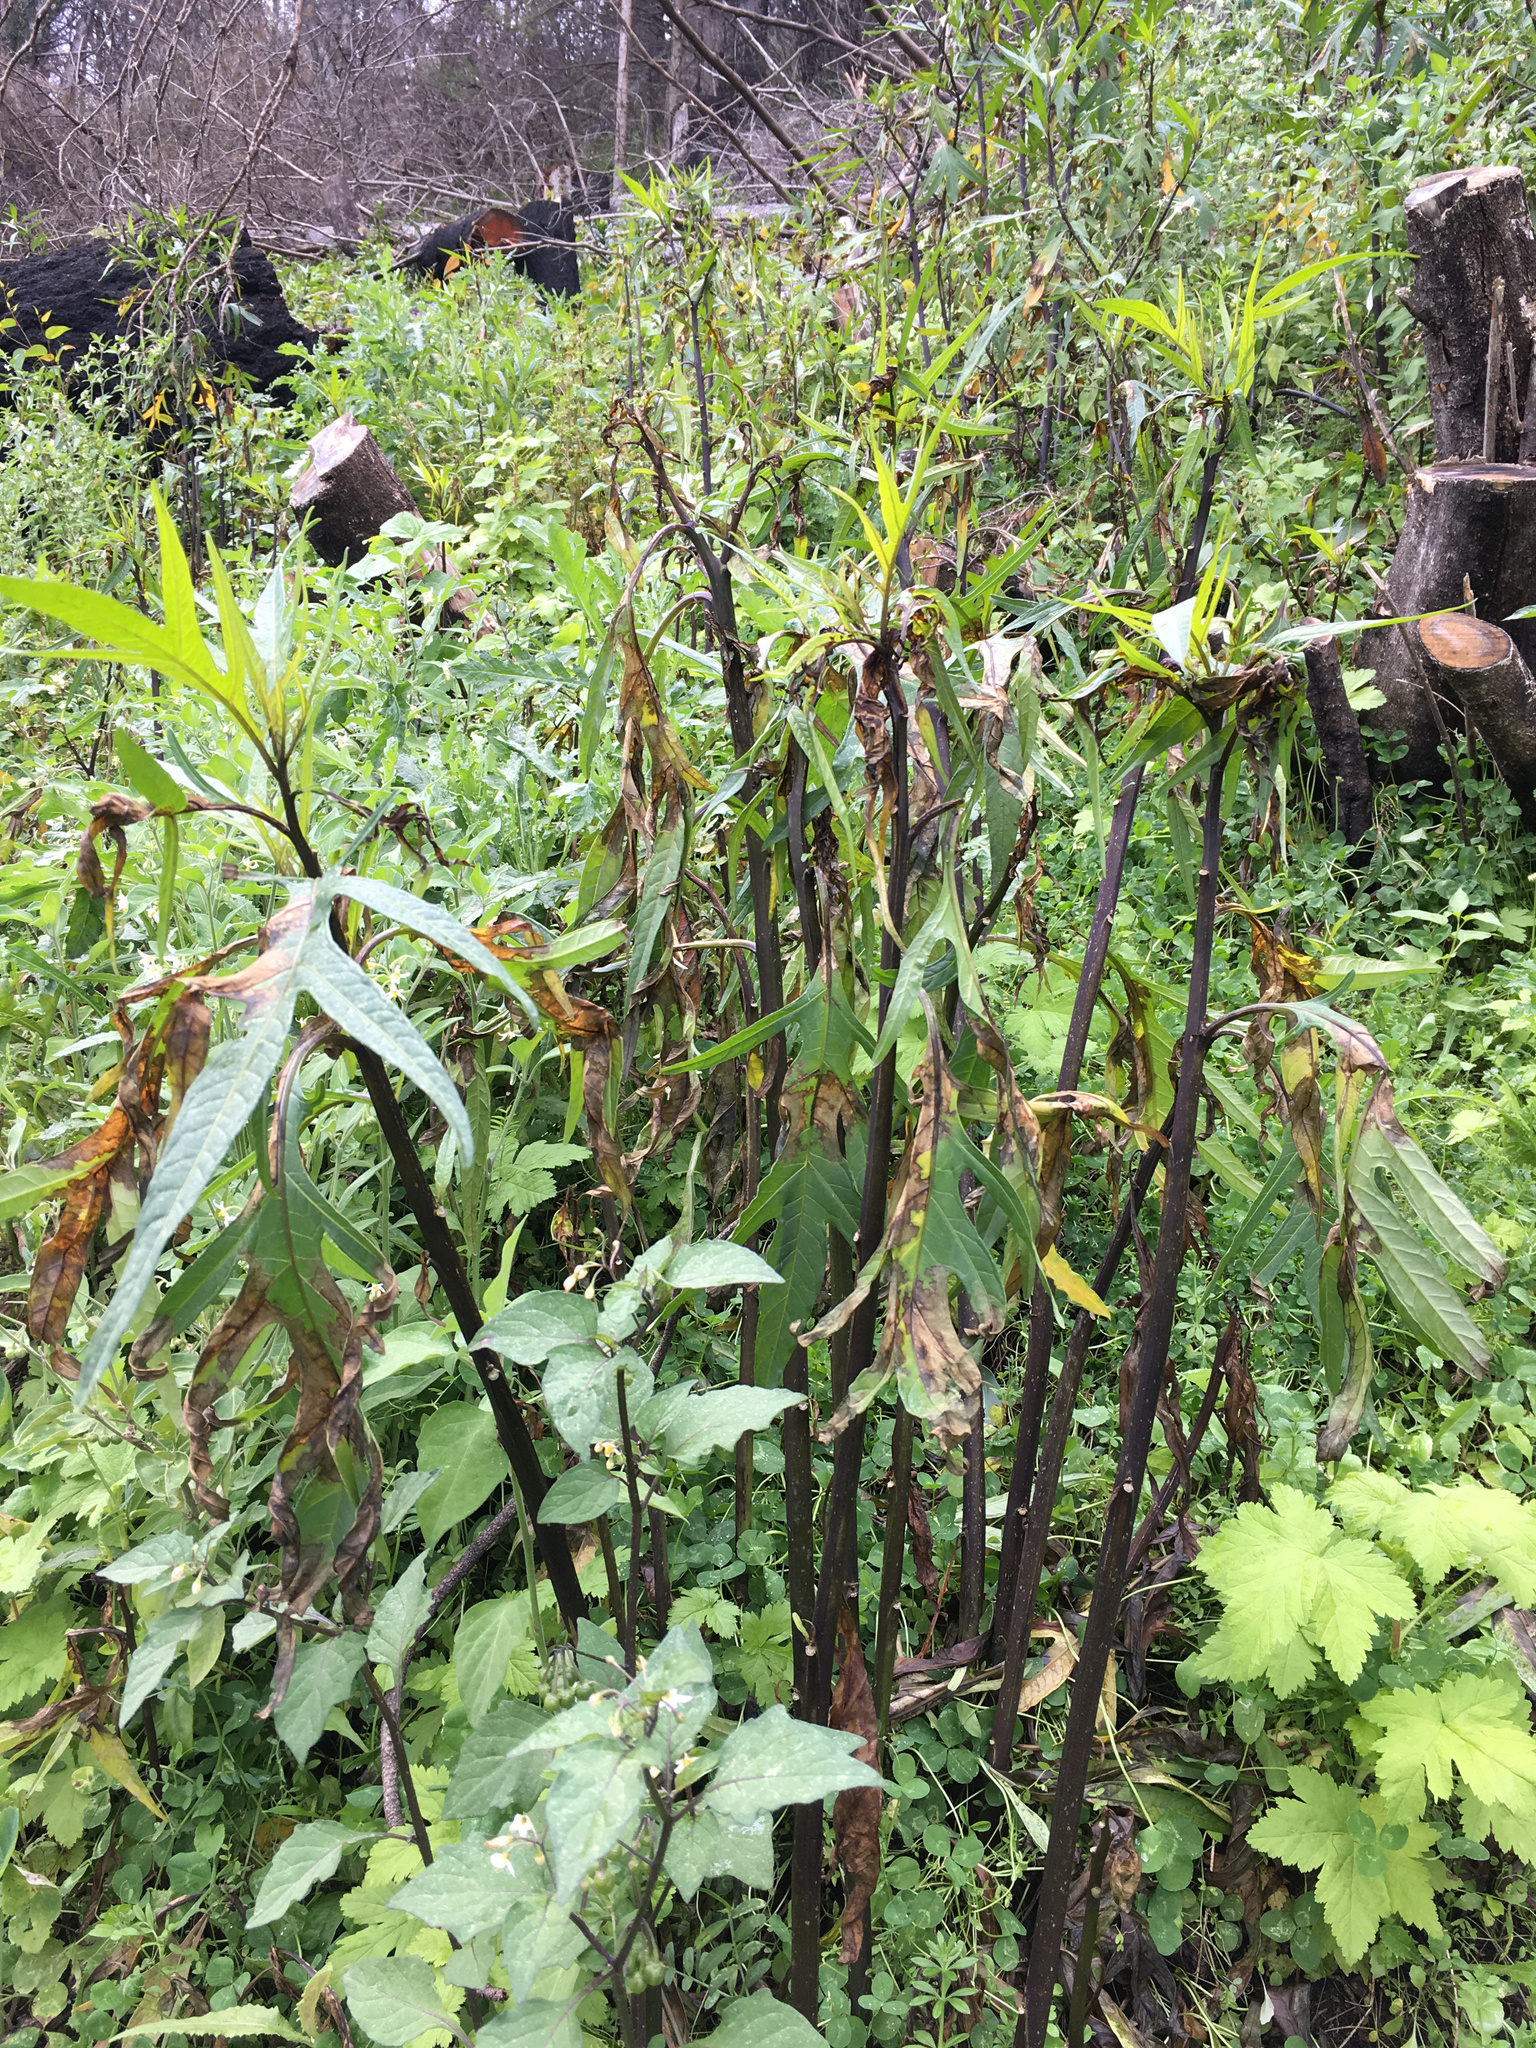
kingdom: Plantae
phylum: Tracheophyta
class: Magnoliopsida
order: Solanales
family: Solanaceae
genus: Solanum
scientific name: Solanum laciniatum
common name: Kangaroo-apple
